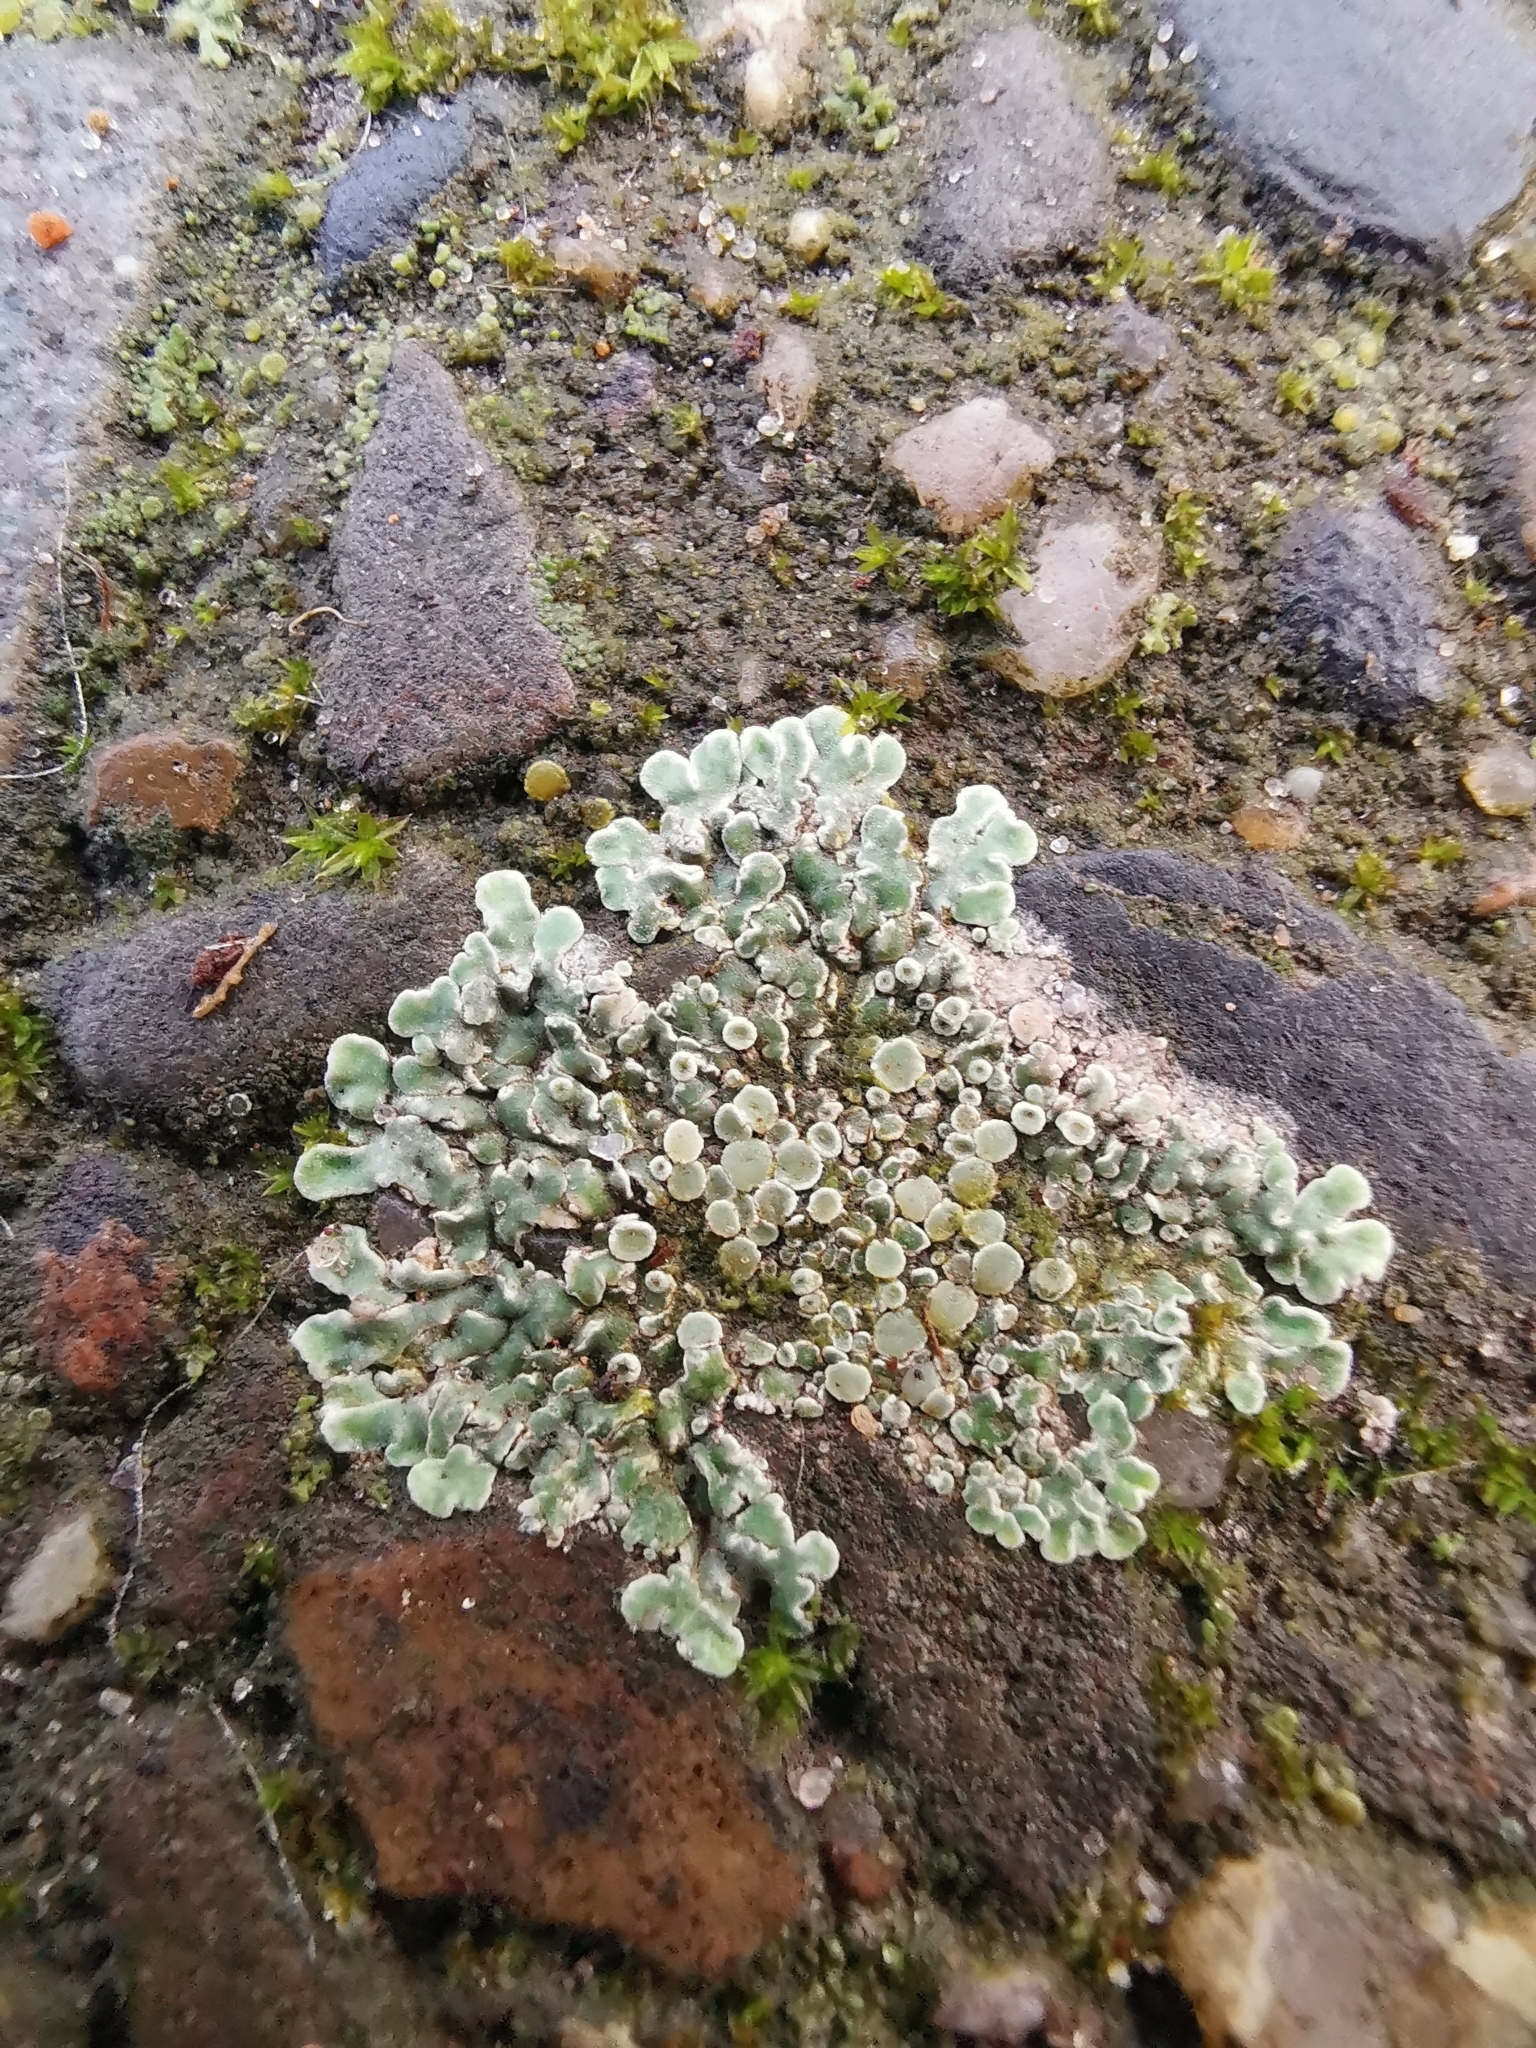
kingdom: Fungi
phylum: Ascomycota
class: Lecanoromycetes
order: Lecanorales
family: Lecanoraceae
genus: Protoparmeliopsis
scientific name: Protoparmeliopsis muralis
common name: Stonewall rim lichen
